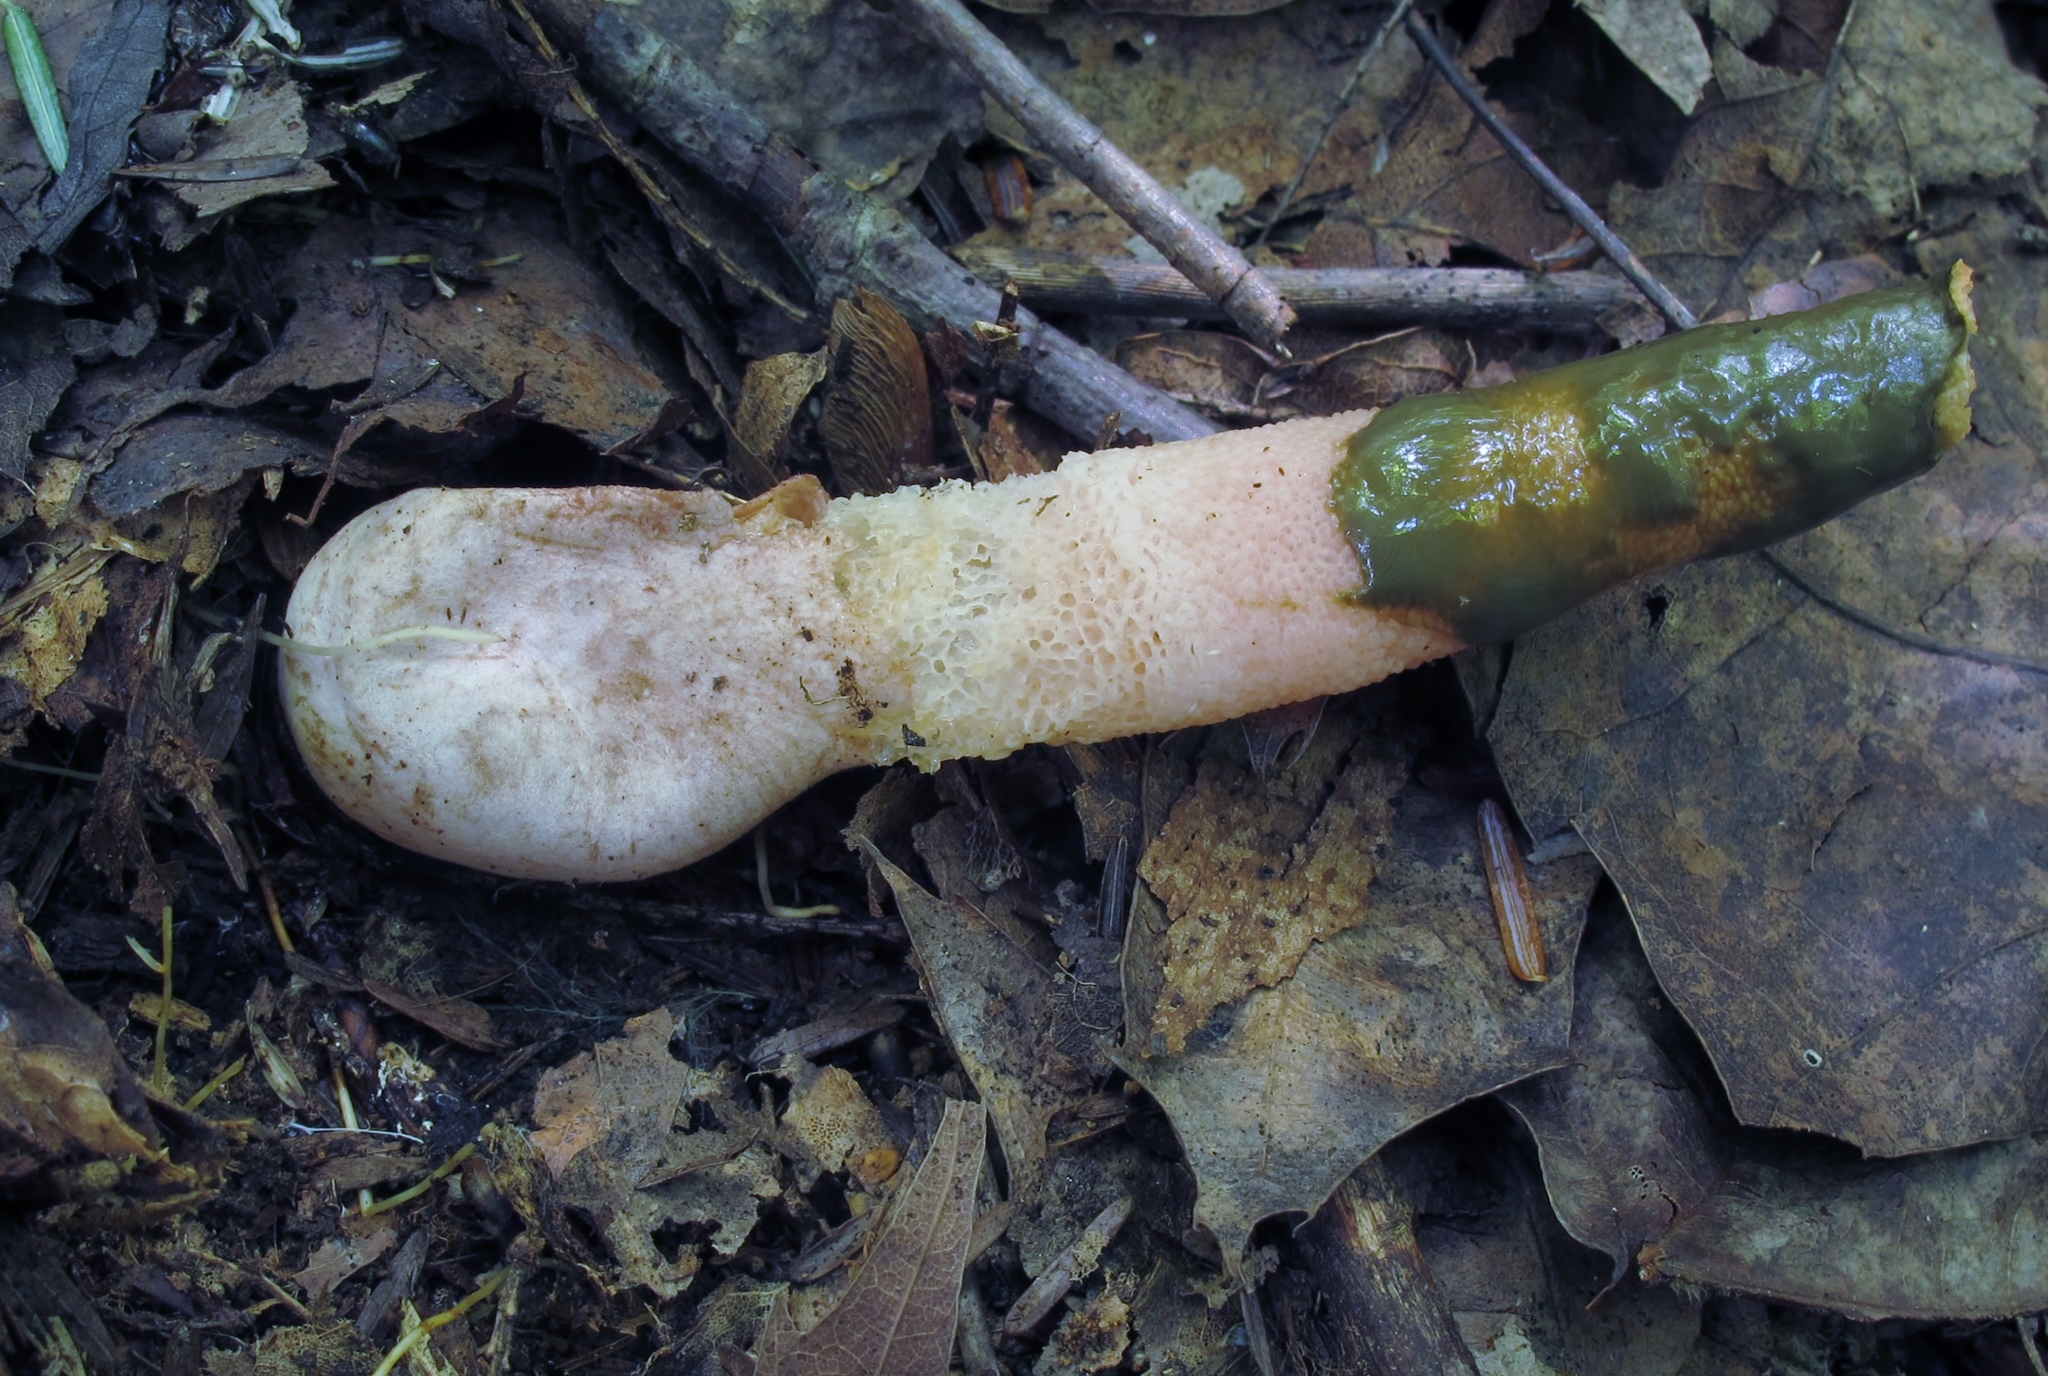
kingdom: Fungi
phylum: Basidiomycota
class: Agaricomycetes
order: Phallales
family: Phallaceae
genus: Mutinus
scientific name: Mutinus elegans
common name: Devil's dipstick
